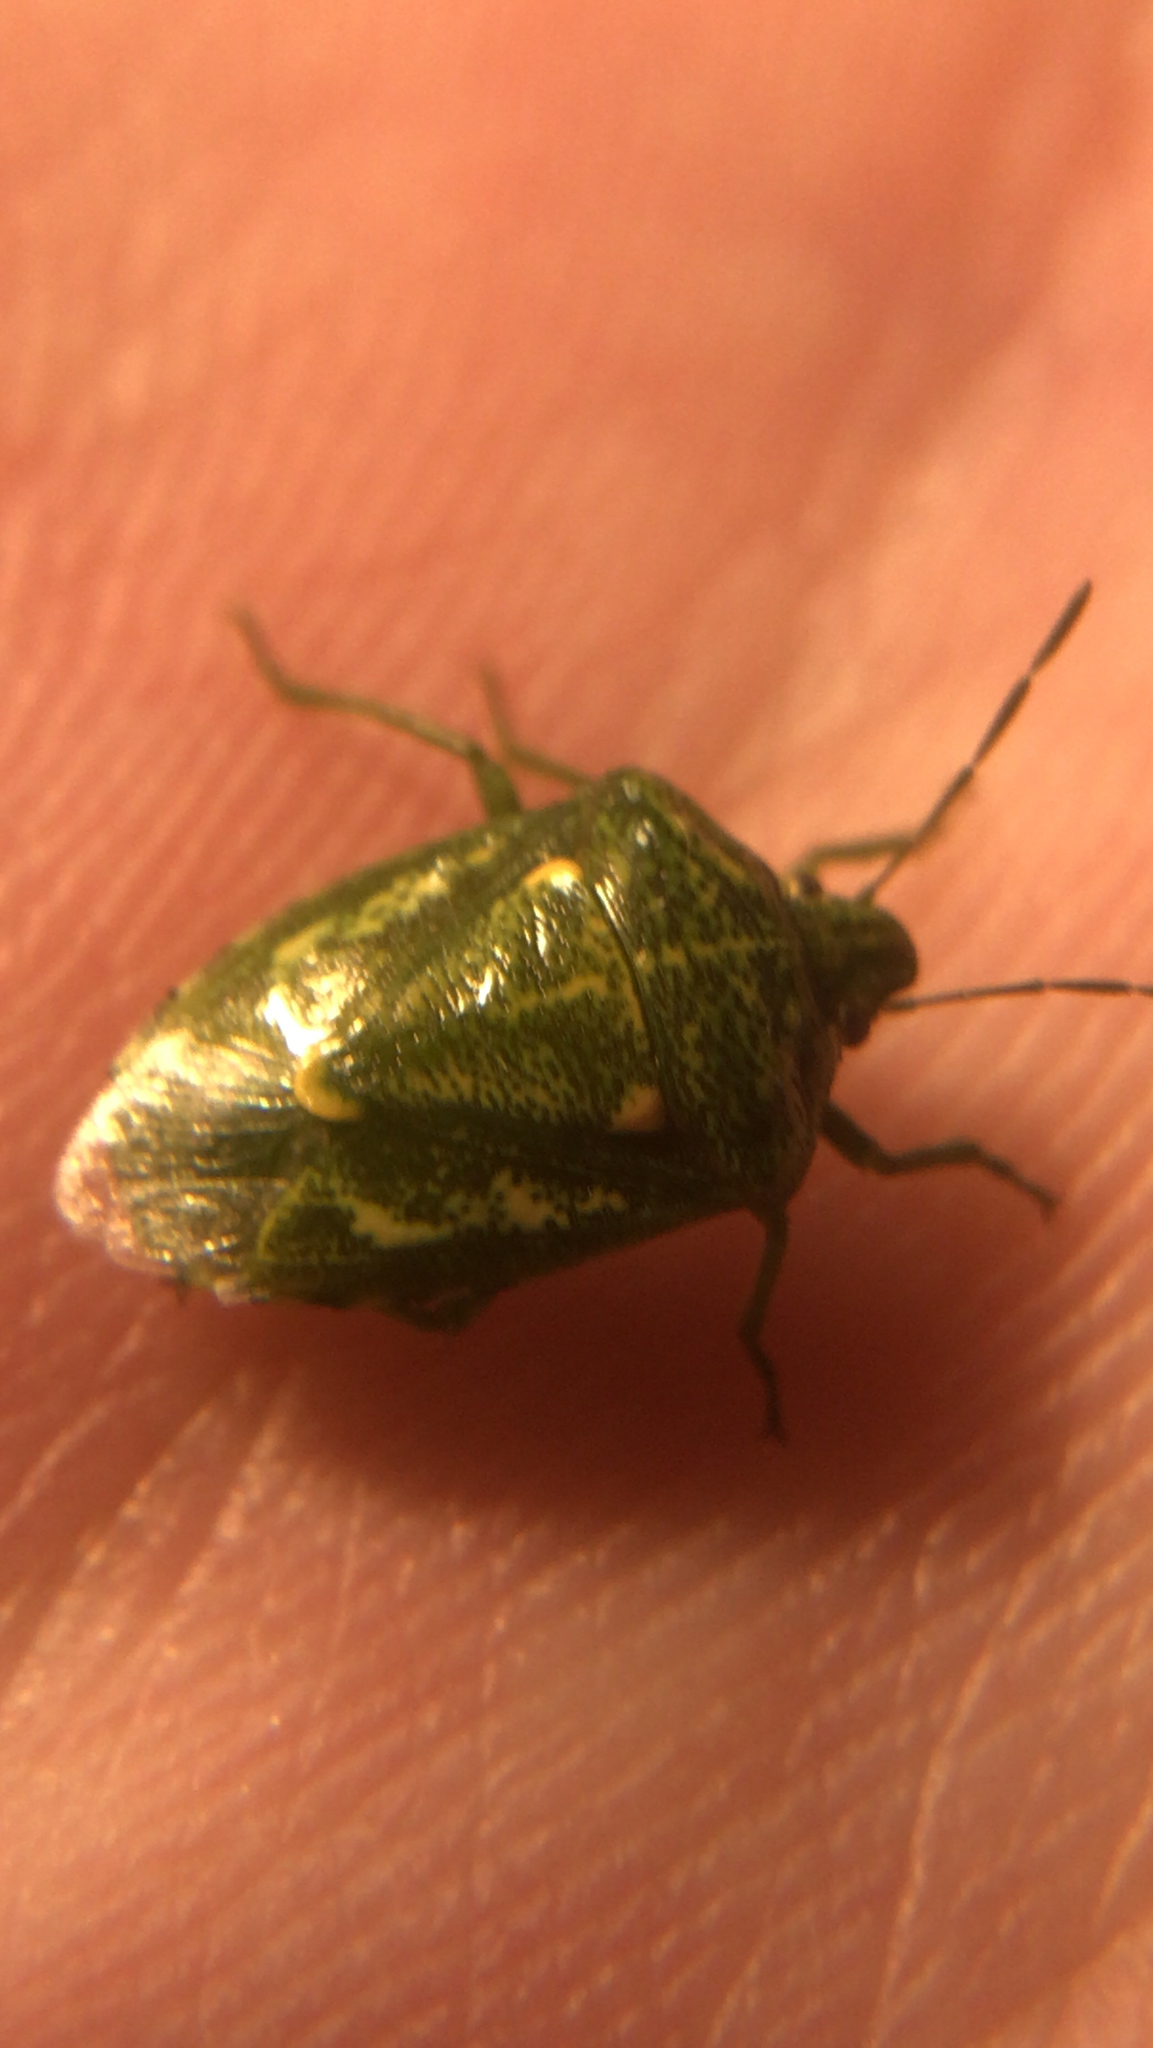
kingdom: Animalia
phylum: Arthropoda
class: Insecta
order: Hemiptera
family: Pentatomidae
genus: Banasa
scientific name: Banasa euchlora
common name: Cedar berry bug
